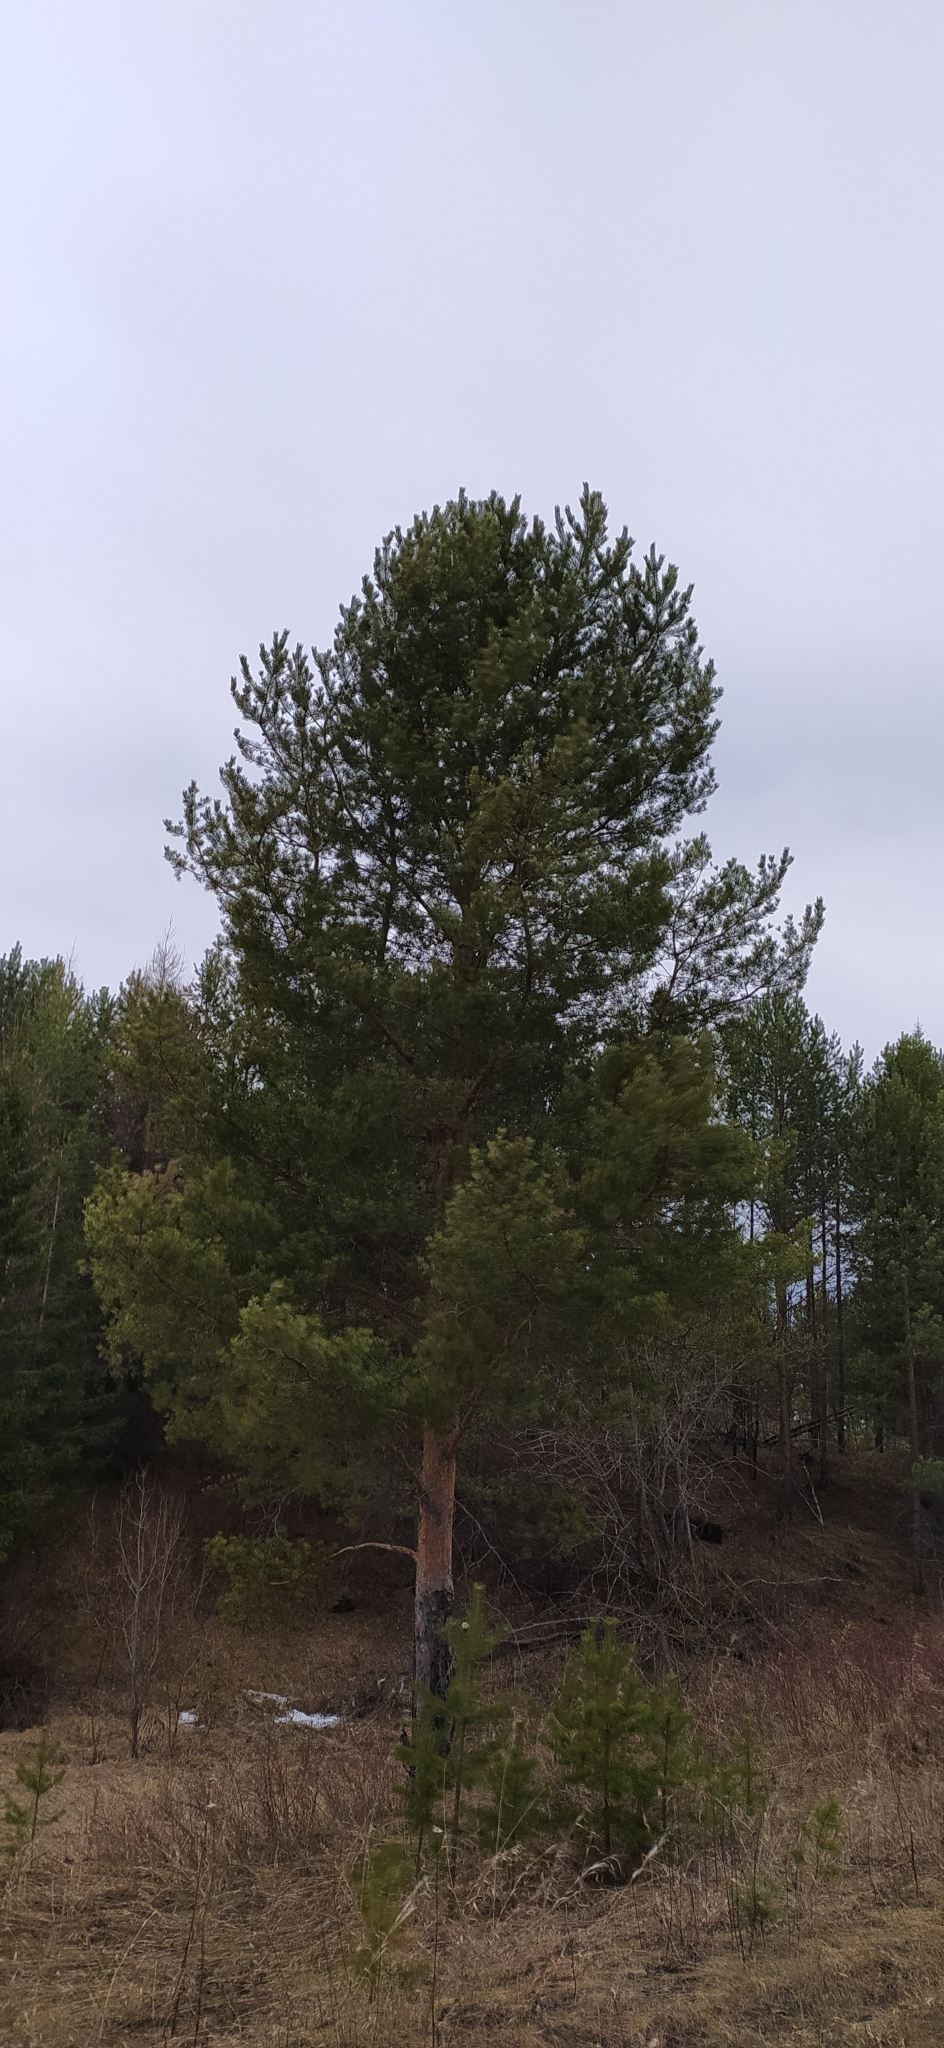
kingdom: Plantae
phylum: Tracheophyta
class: Pinopsida
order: Pinales
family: Pinaceae
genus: Pinus
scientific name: Pinus sylvestris
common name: Scots pine
